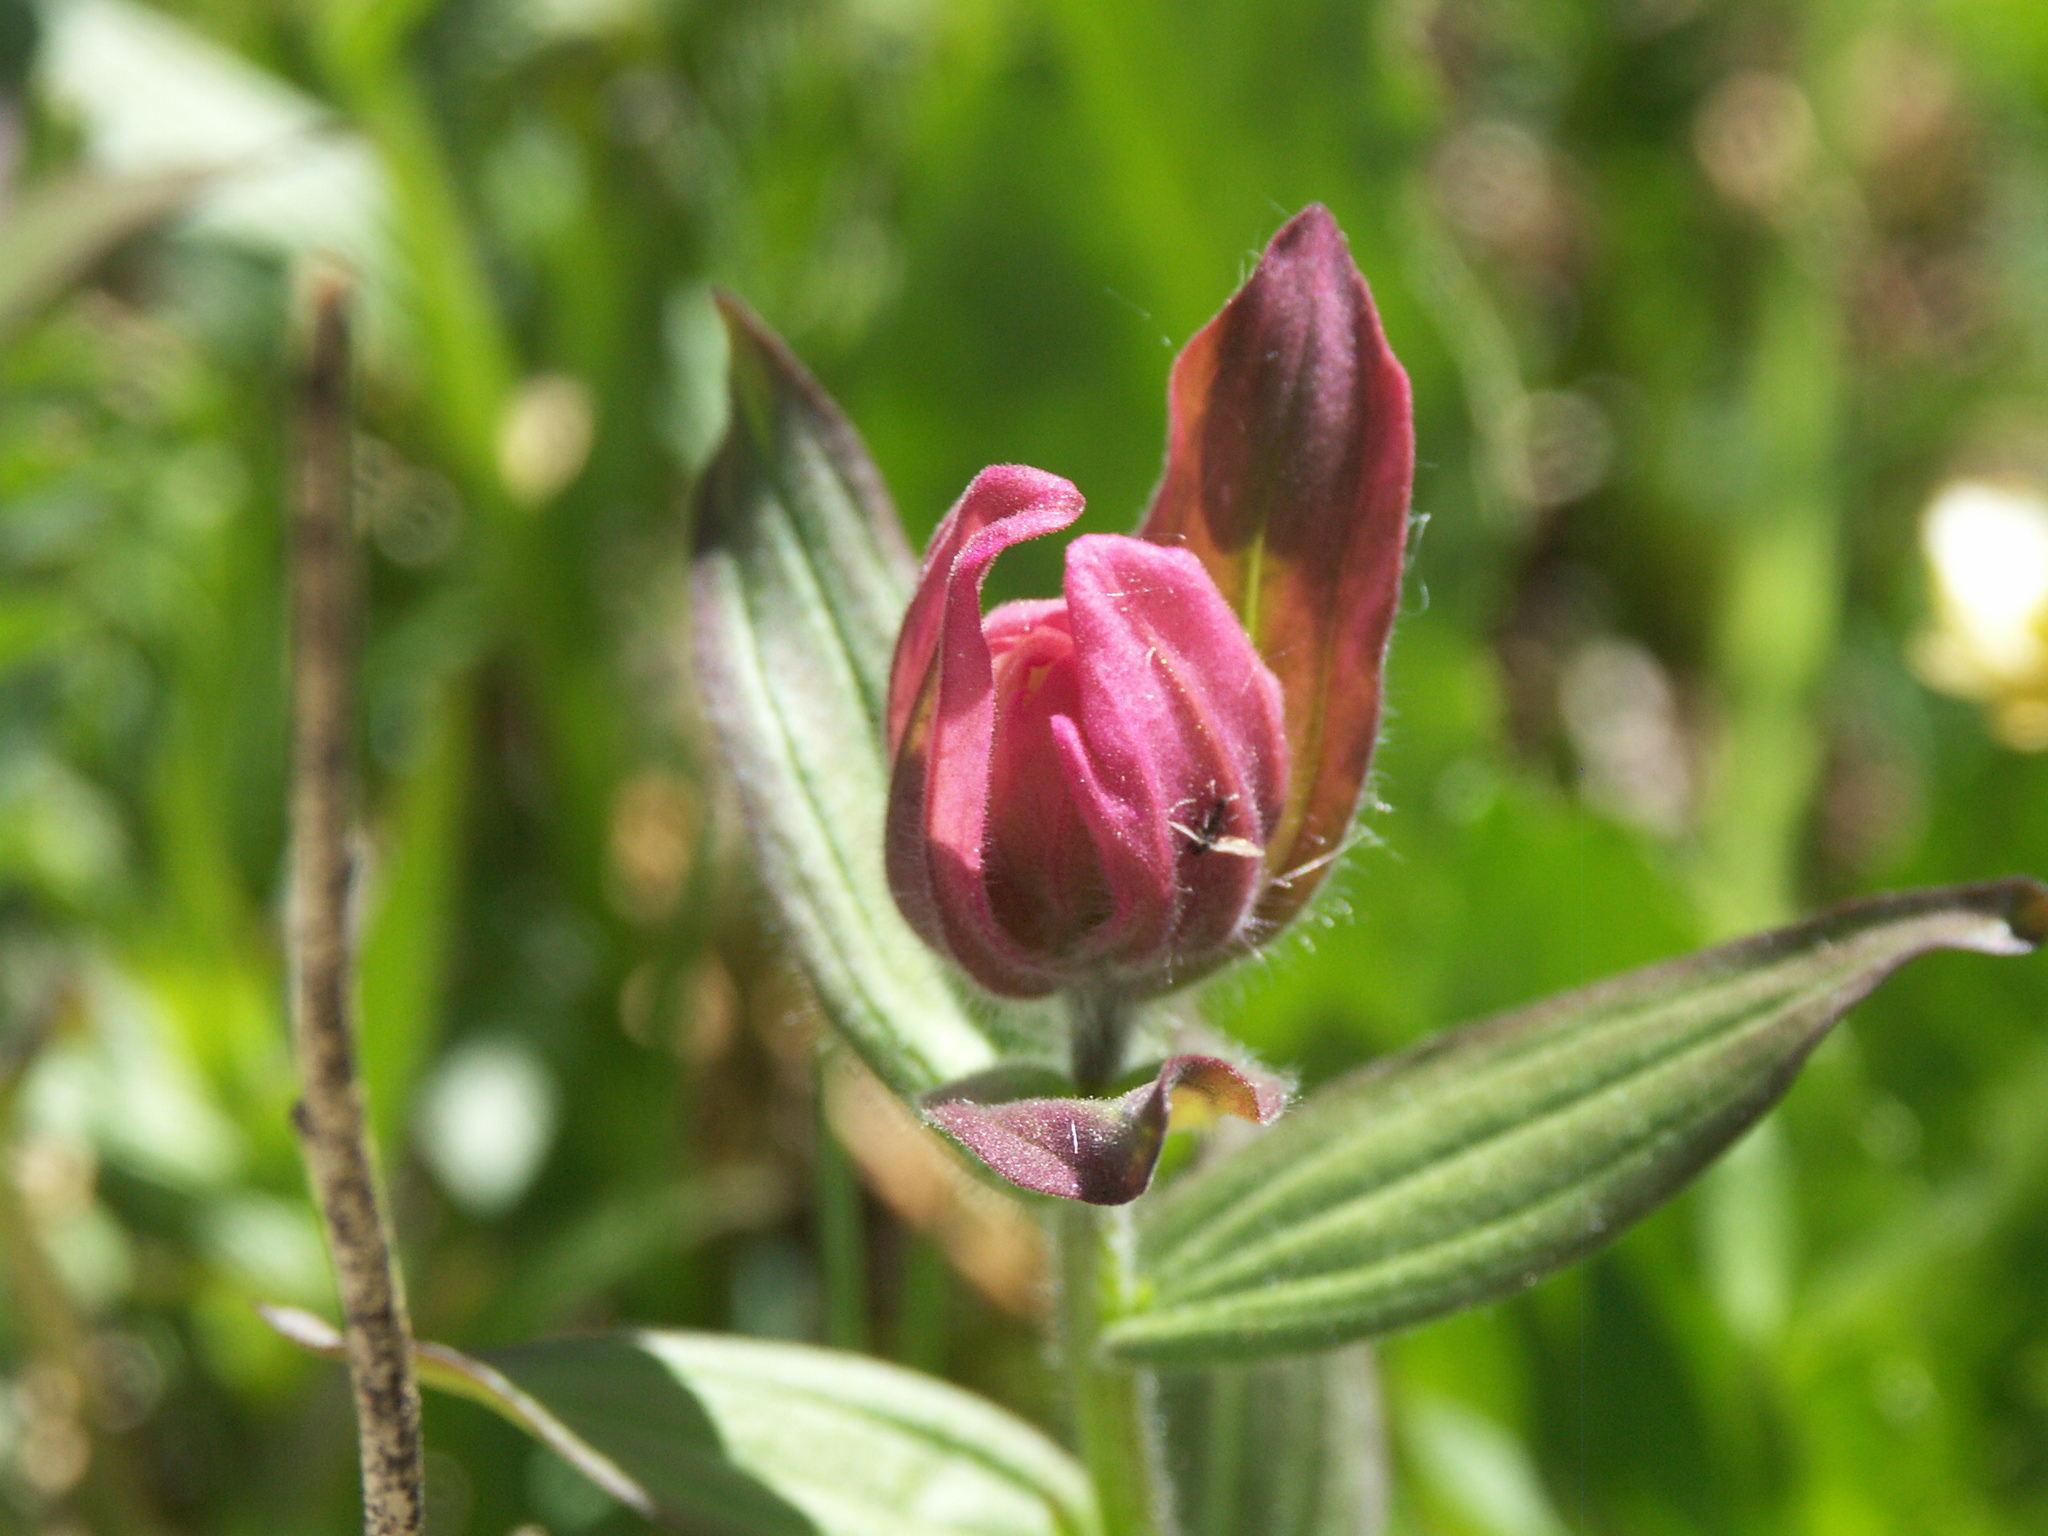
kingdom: Plantae
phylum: Tracheophyta
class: Magnoliopsida
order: Lamiales
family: Orobanchaceae
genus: Castilleja
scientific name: Castilleja rhexifolia
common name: Rocky mountain paintbrush
